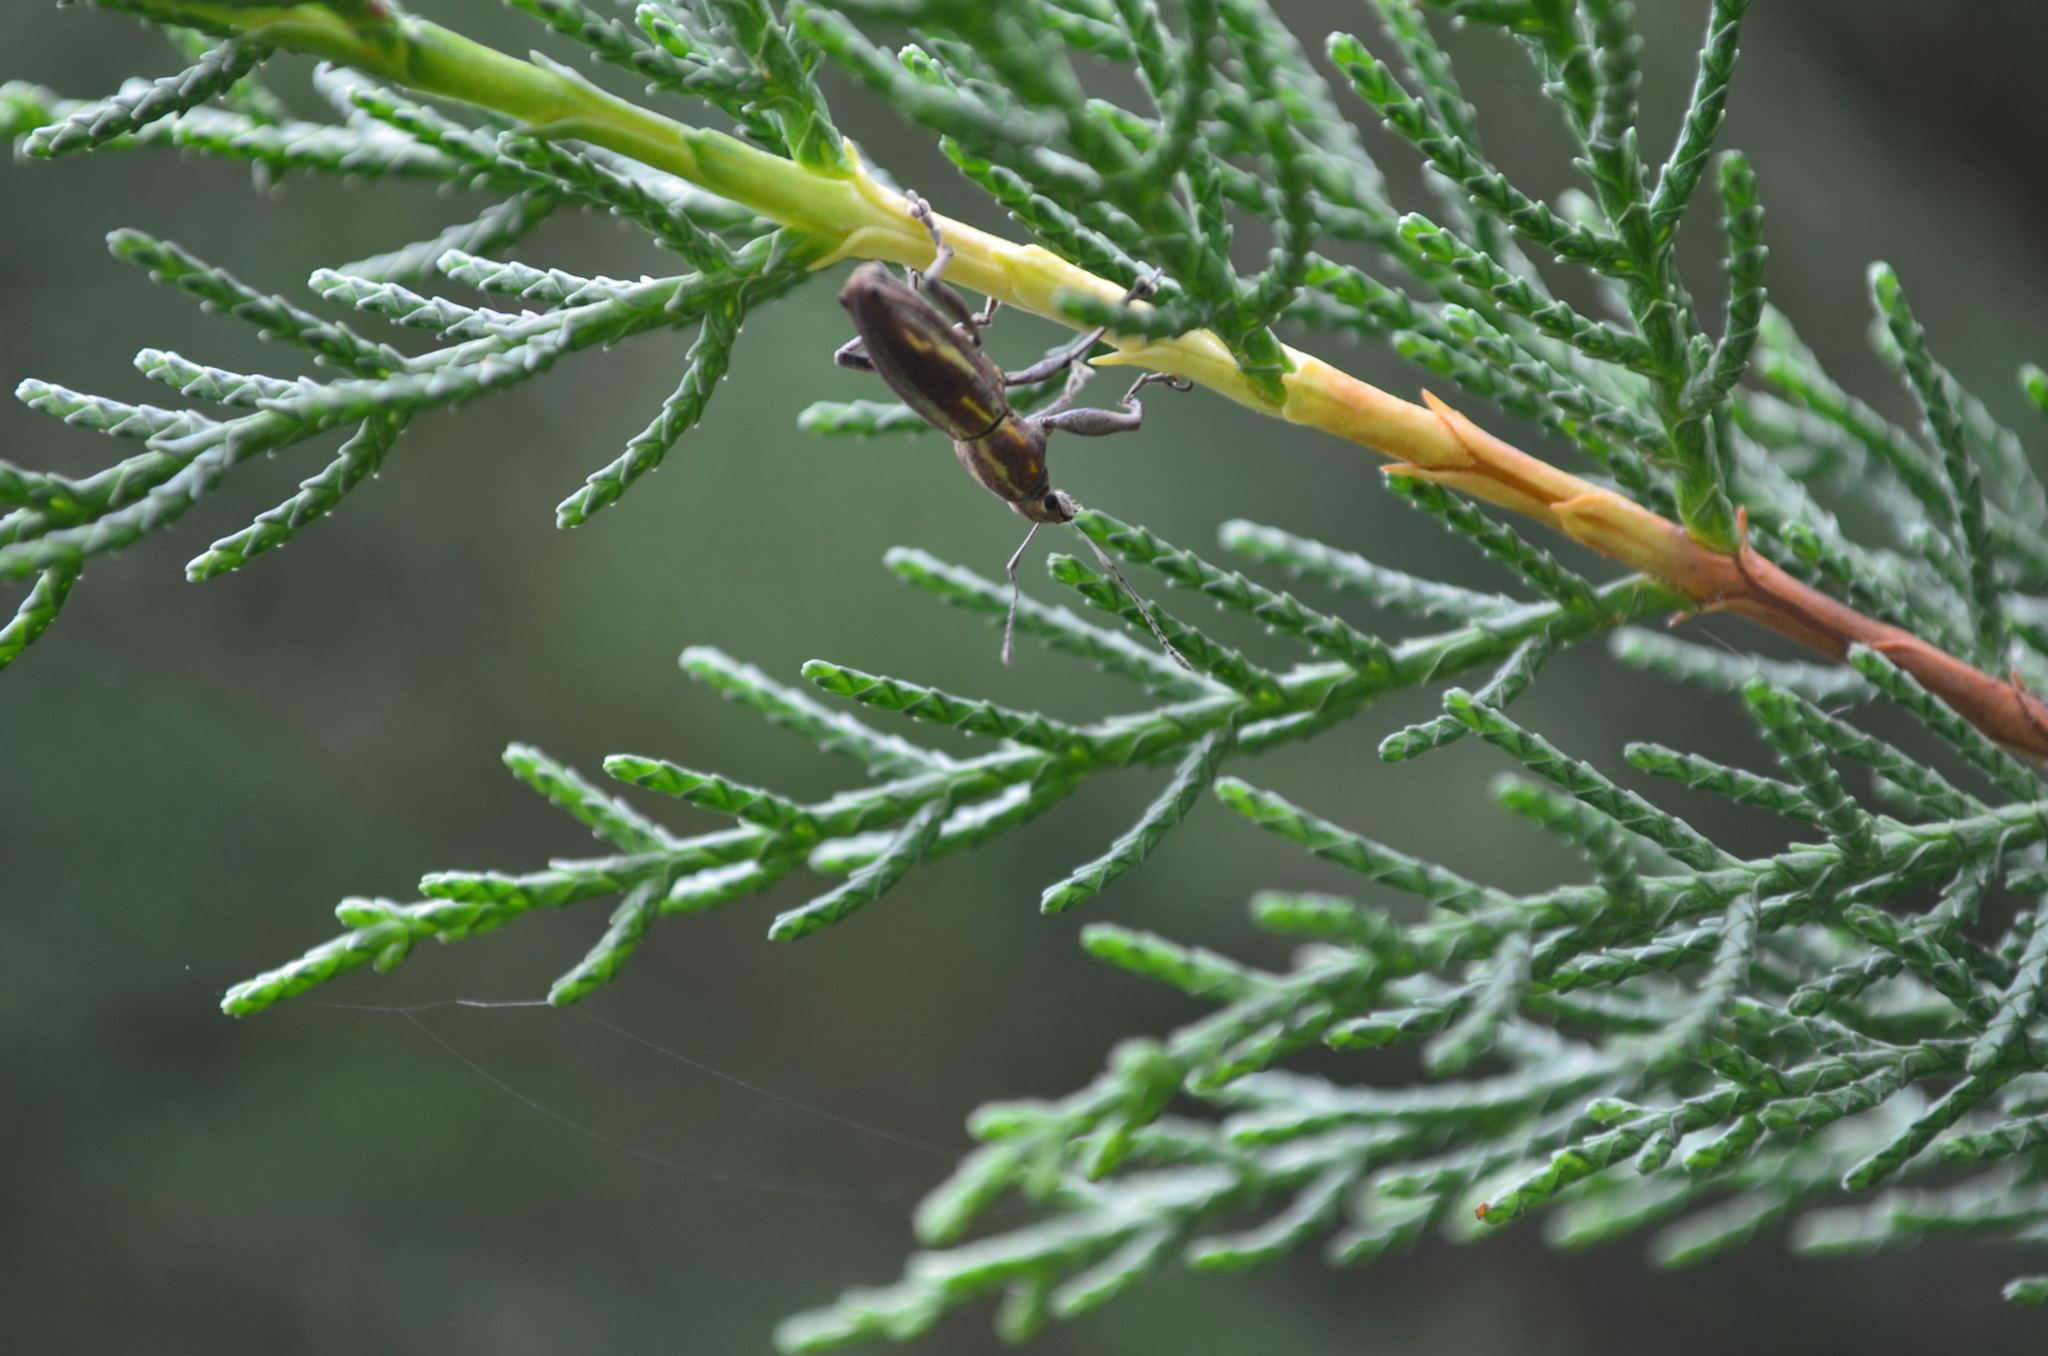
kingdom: Animalia
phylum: Arthropoda
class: Insecta
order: Coleoptera
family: Curculionidae
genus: Naupactus
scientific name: Naupactus xanthographus
